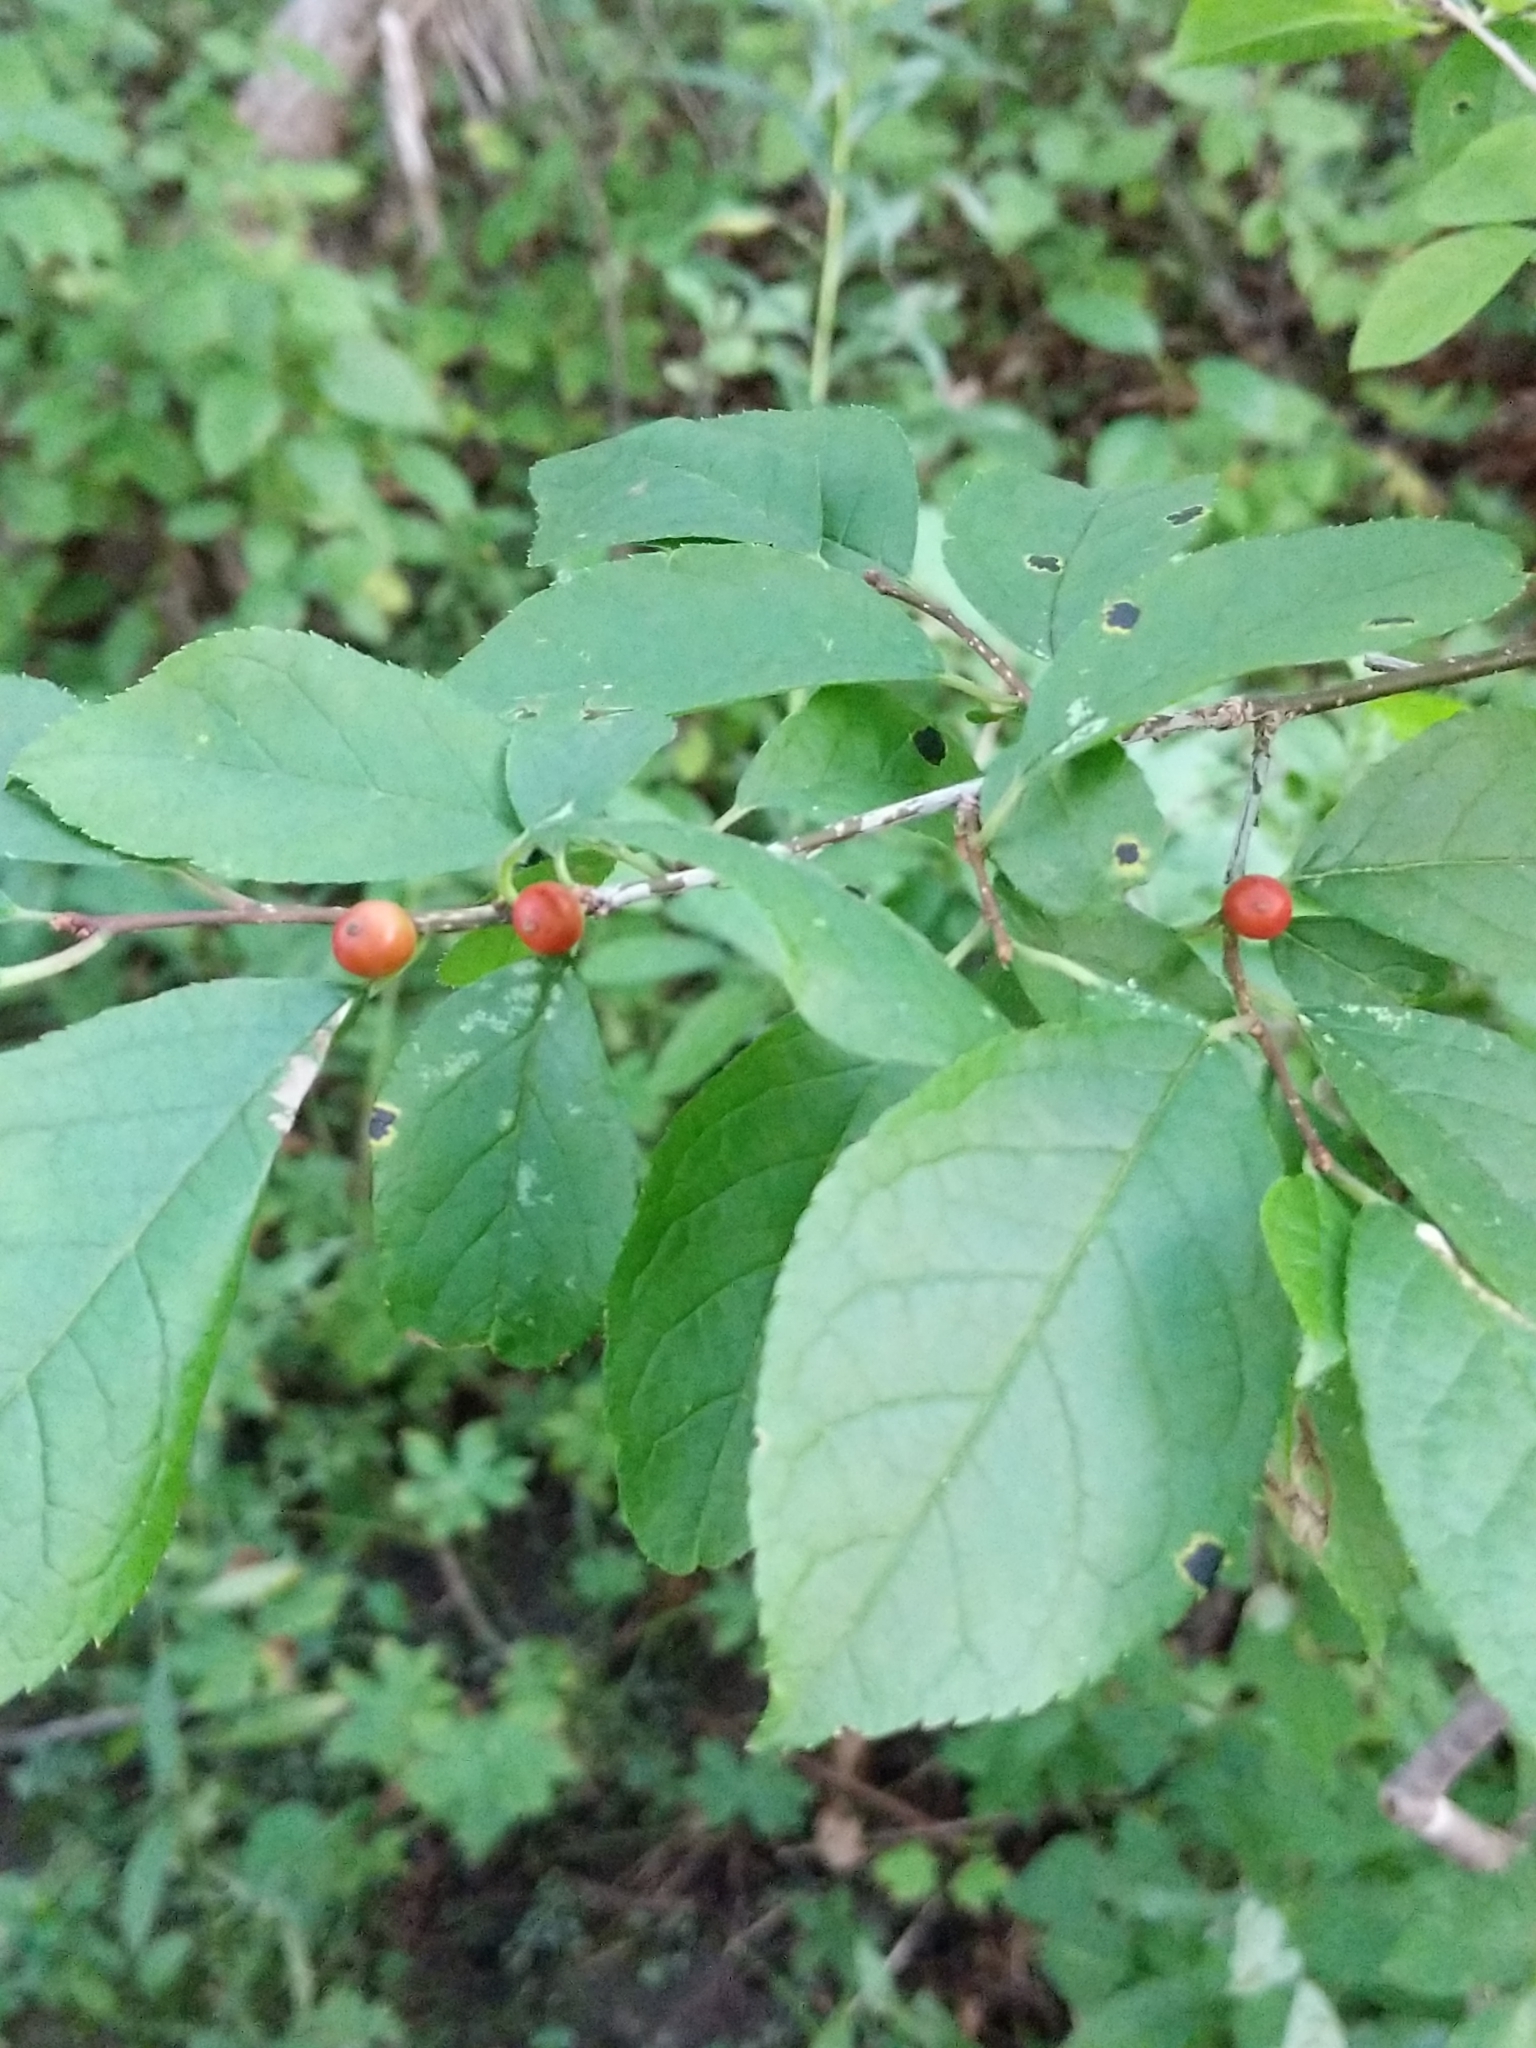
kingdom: Plantae
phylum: Tracheophyta
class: Magnoliopsida
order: Aquifoliales
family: Aquifoliaceae
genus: Ilex
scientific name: Ilex verticillata
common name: Virginia winterberry
